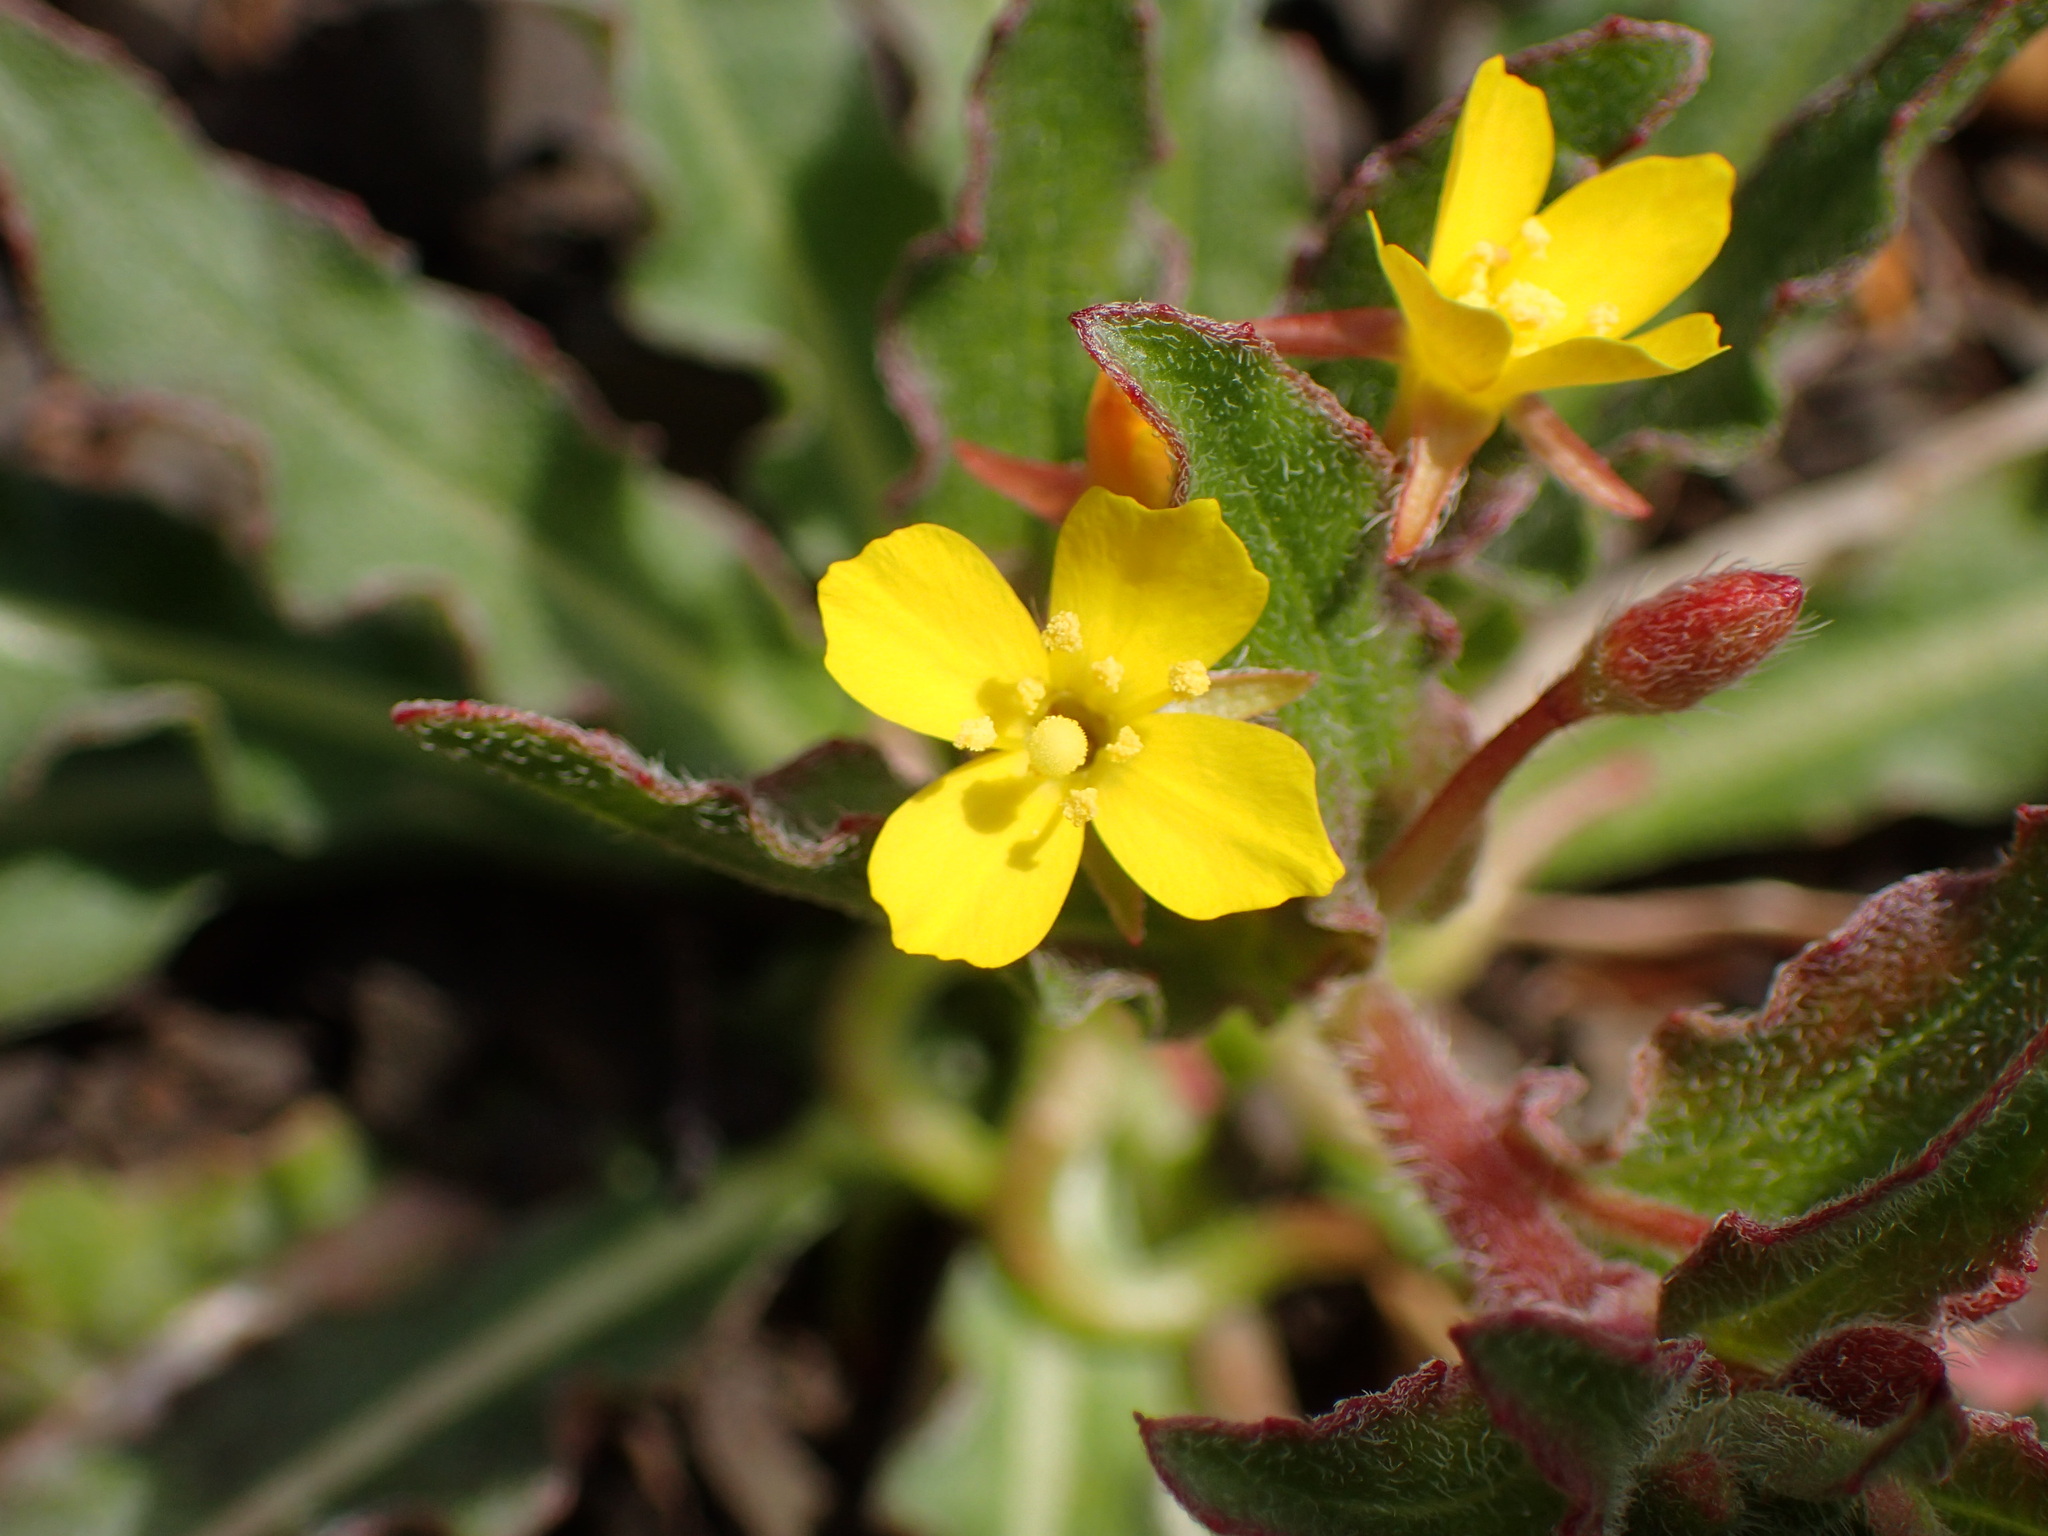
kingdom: Plantae
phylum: Tracheophyta
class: Magnoliopsida
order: Myrtales
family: Onagraceae
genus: Camissoniopsis
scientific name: Camissoniopsis micrantha
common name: Miniature suncup
